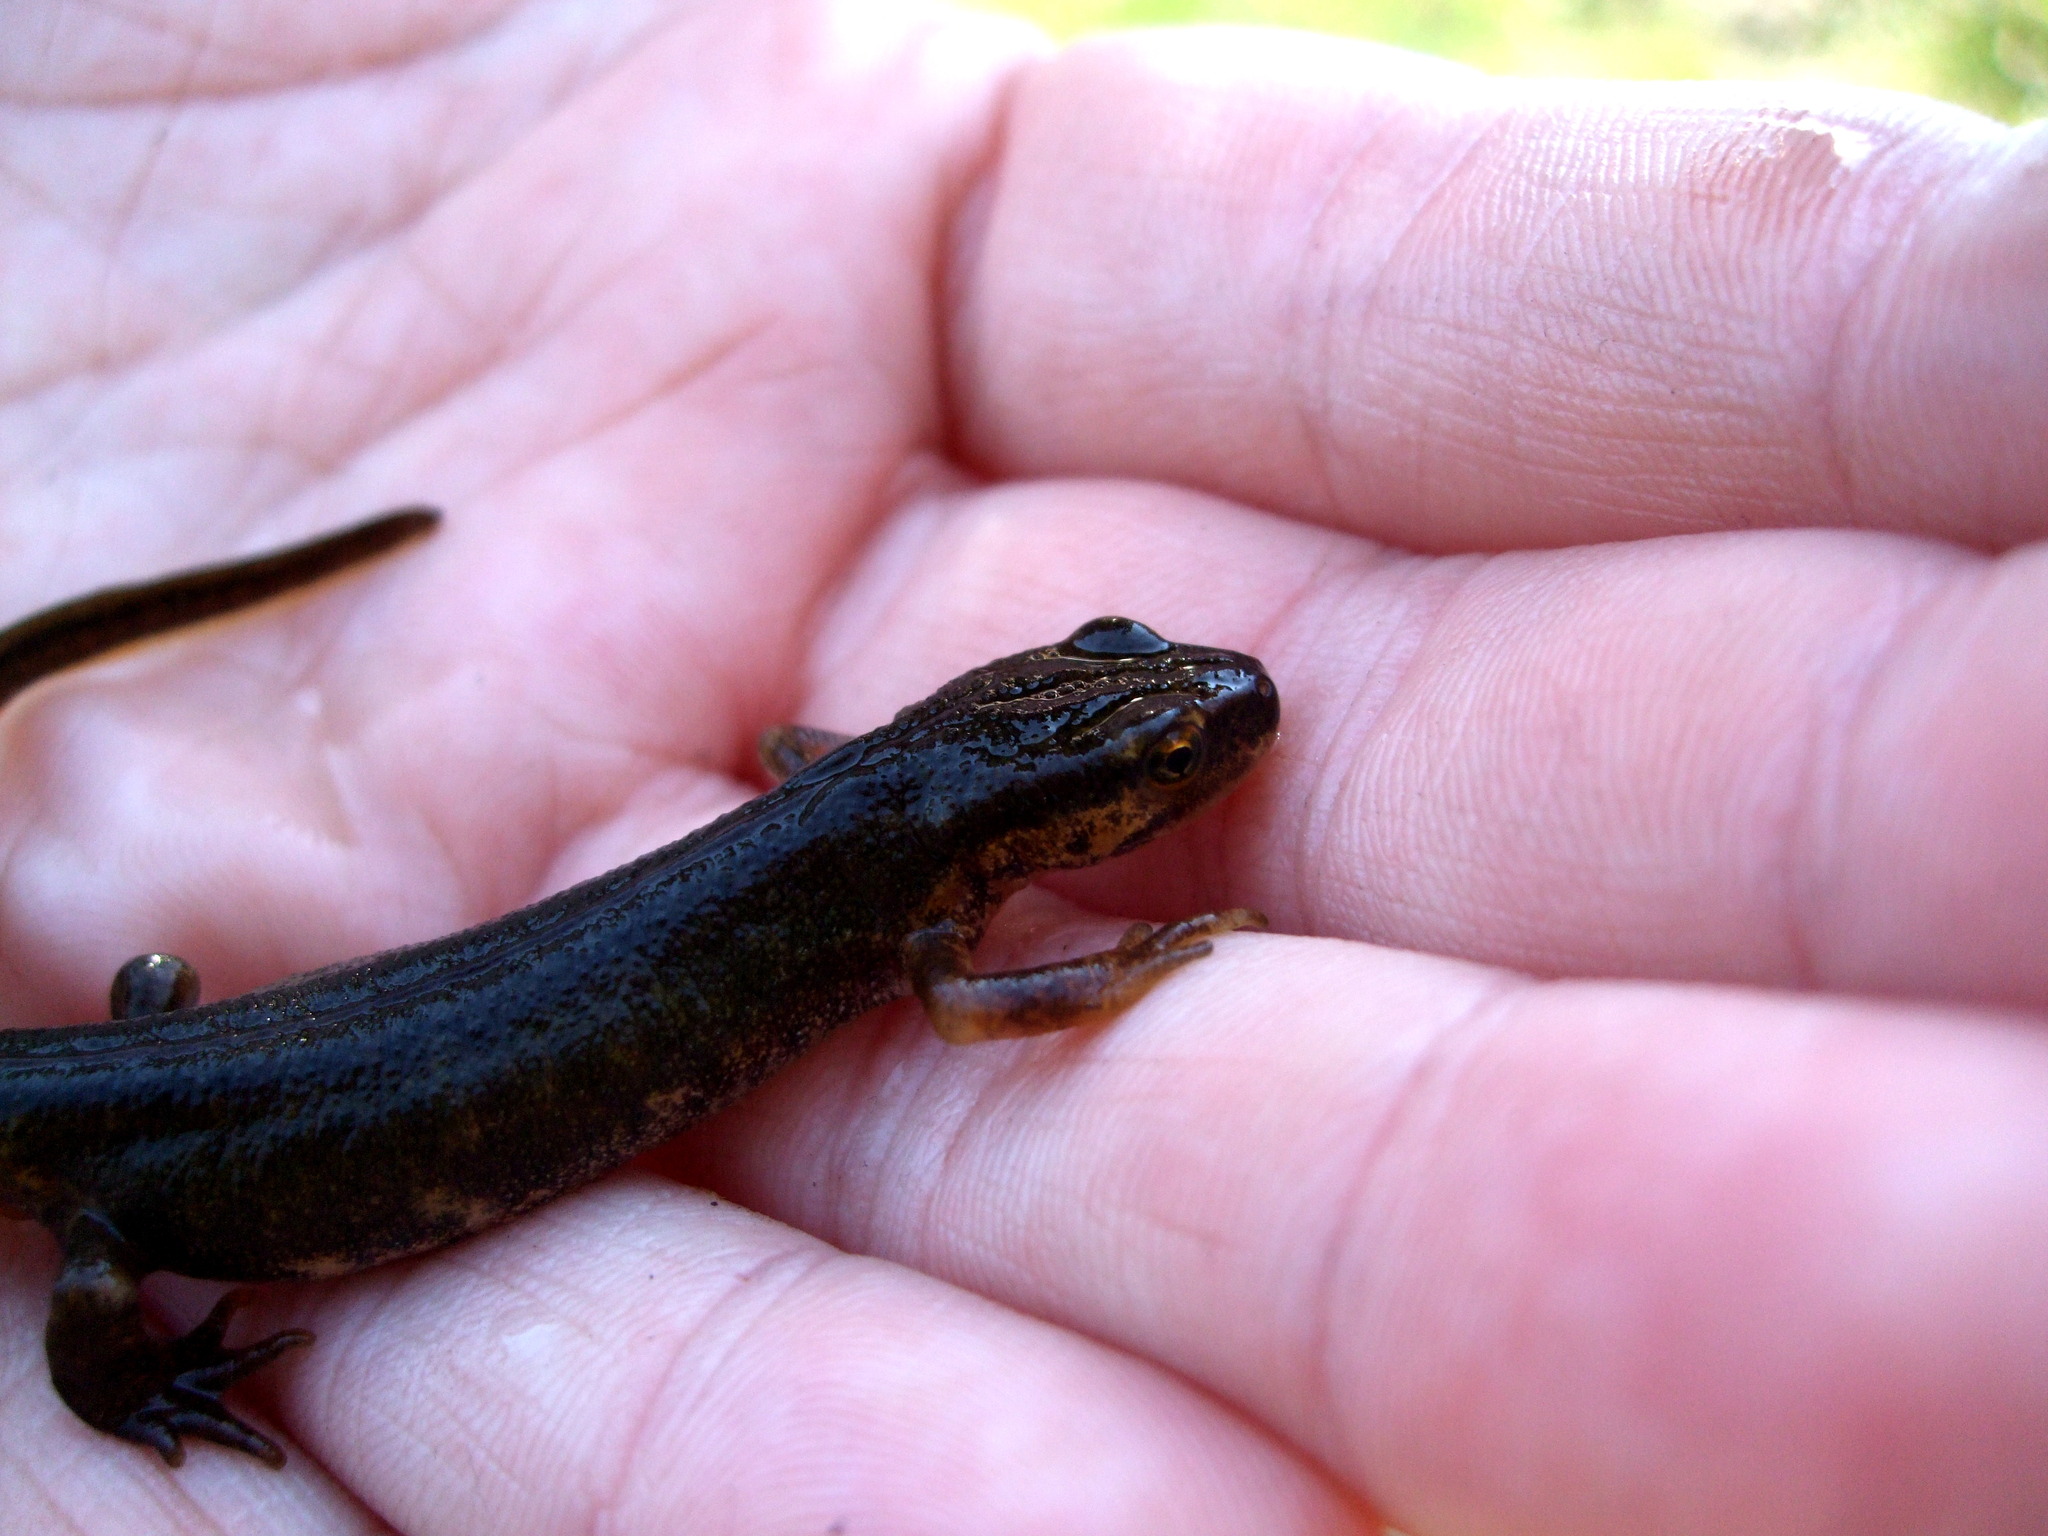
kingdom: Animalia
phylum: Chordata
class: Amphibia
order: Caudata
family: Salamandridae
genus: Lissotriton
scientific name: Lissotriton vulgaris
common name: Smooth newt
